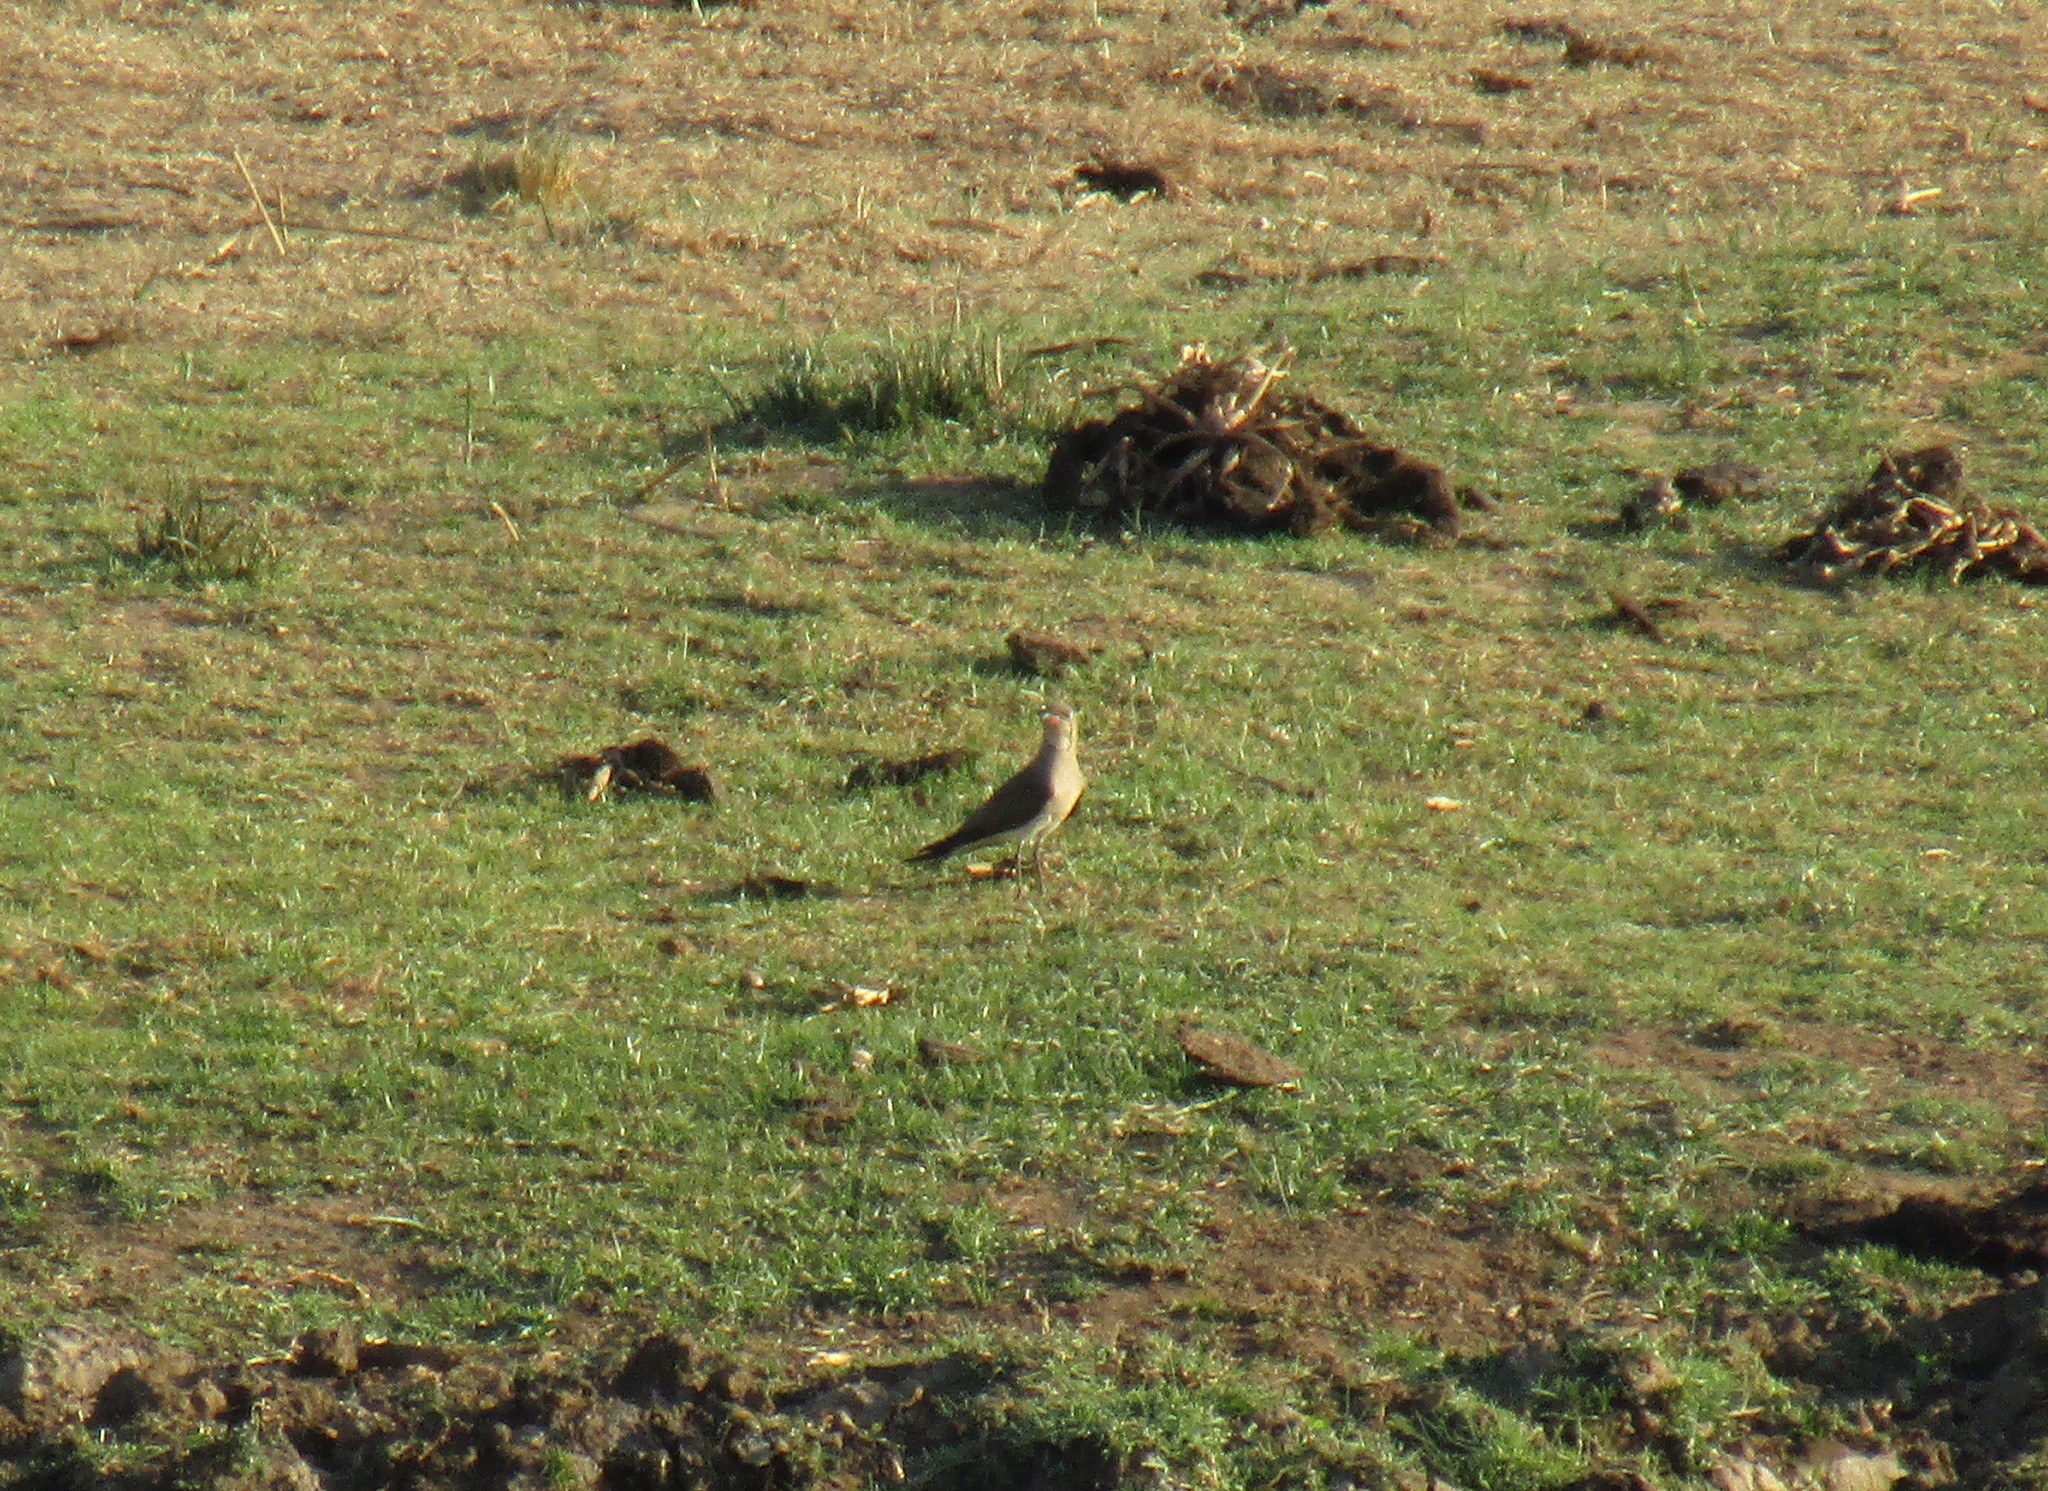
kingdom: Animalia
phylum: Chordata
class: Aves
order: Charadriiformes
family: Glareolidae
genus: Glareola
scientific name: Glareola pratincola
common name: Collared pratincole
